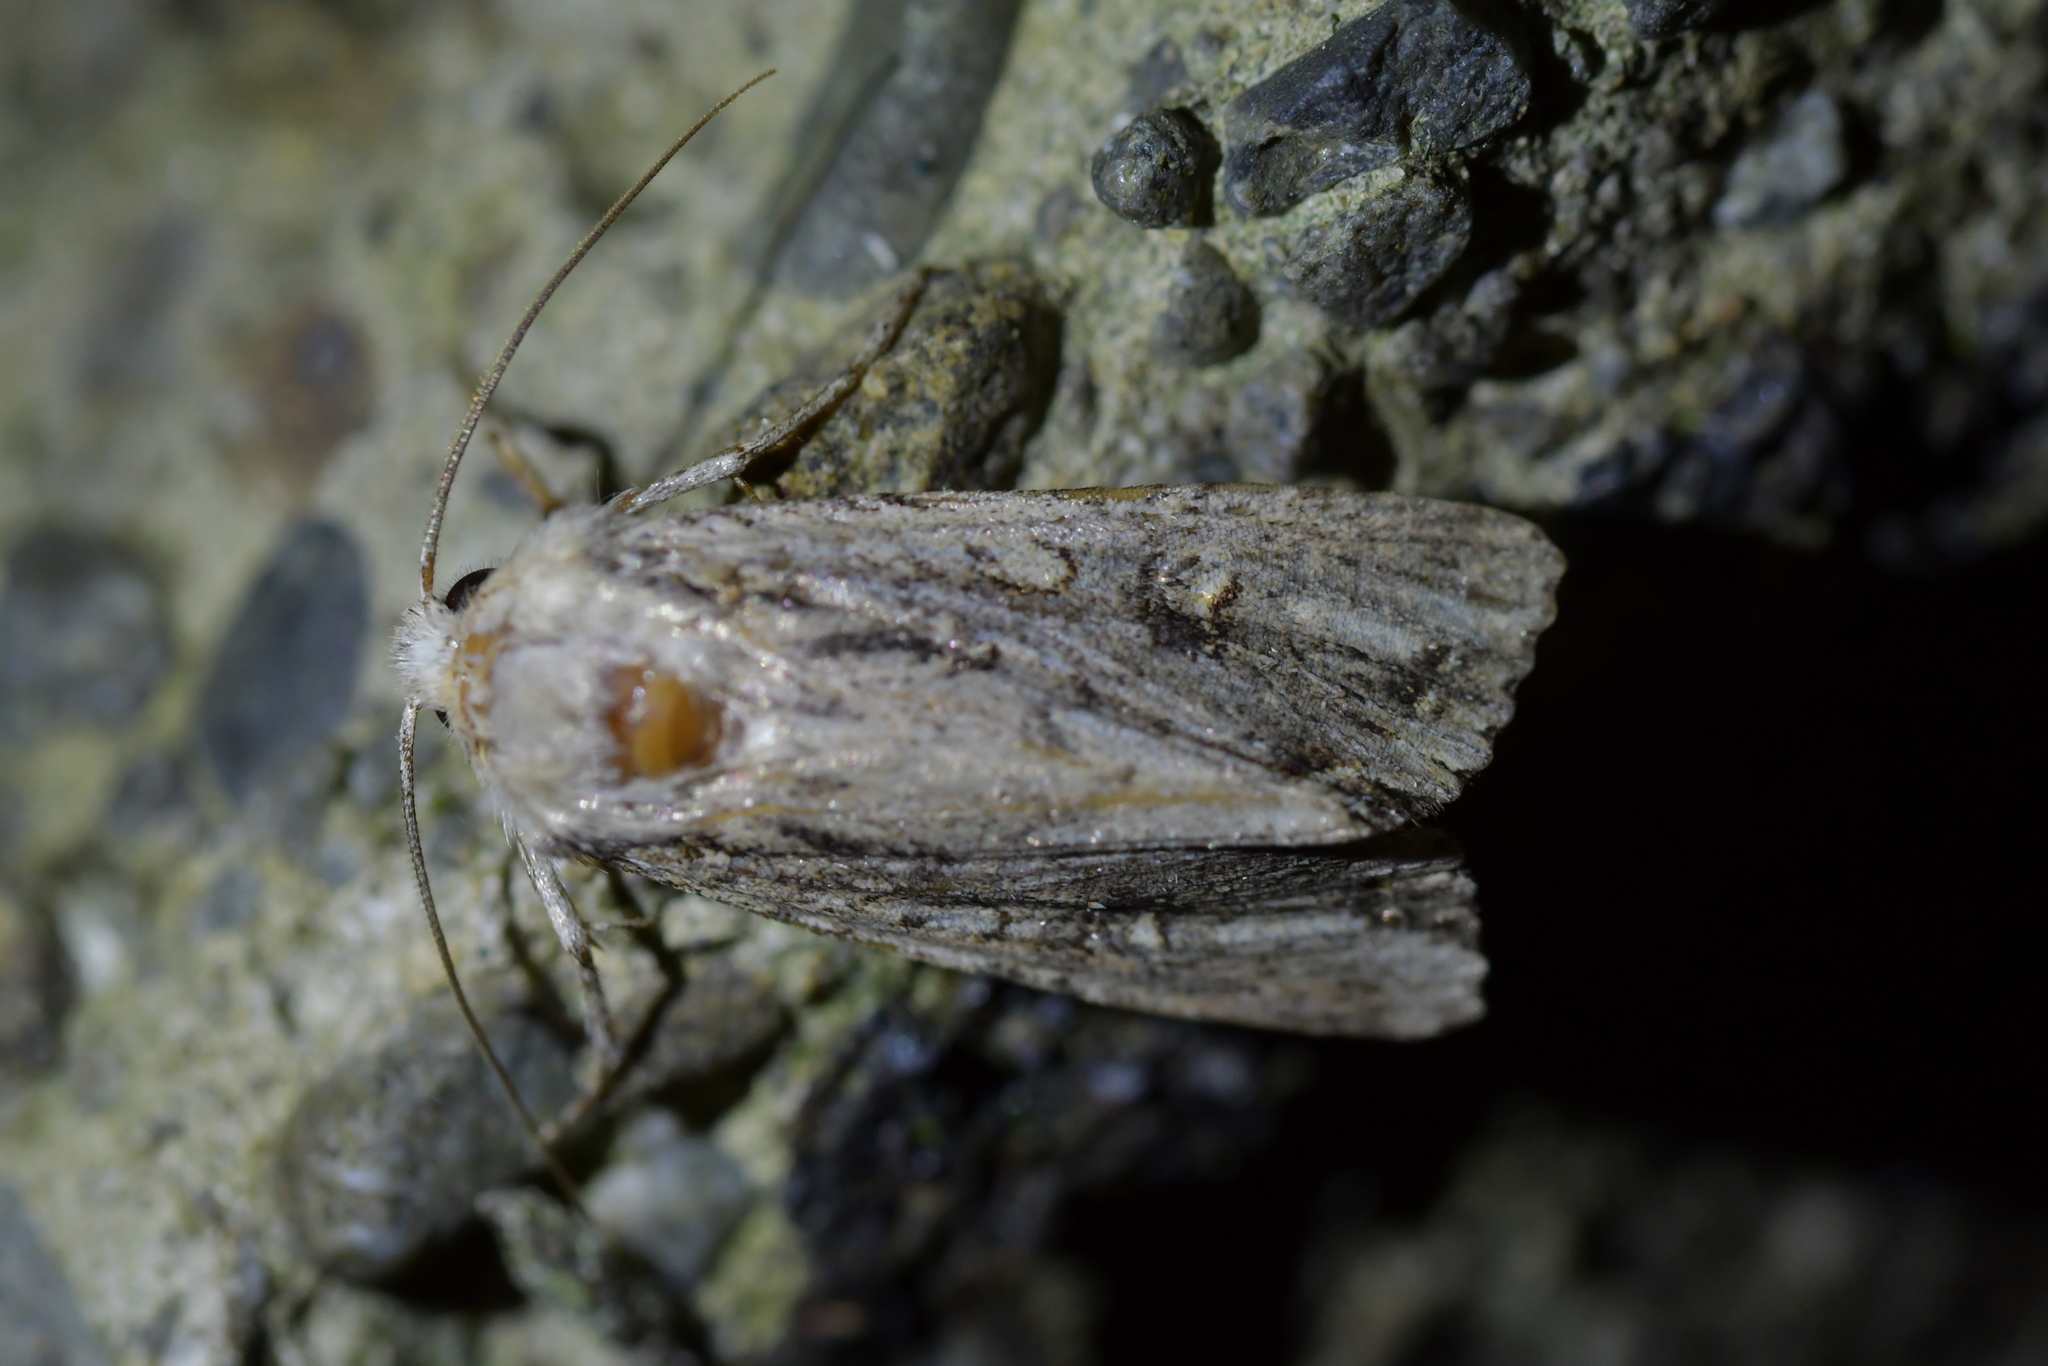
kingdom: Animalia
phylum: Arthropoda
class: Insecta
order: Lepidoptera
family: Noctuidae
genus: Ichneutica
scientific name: Ichneutica lignana
